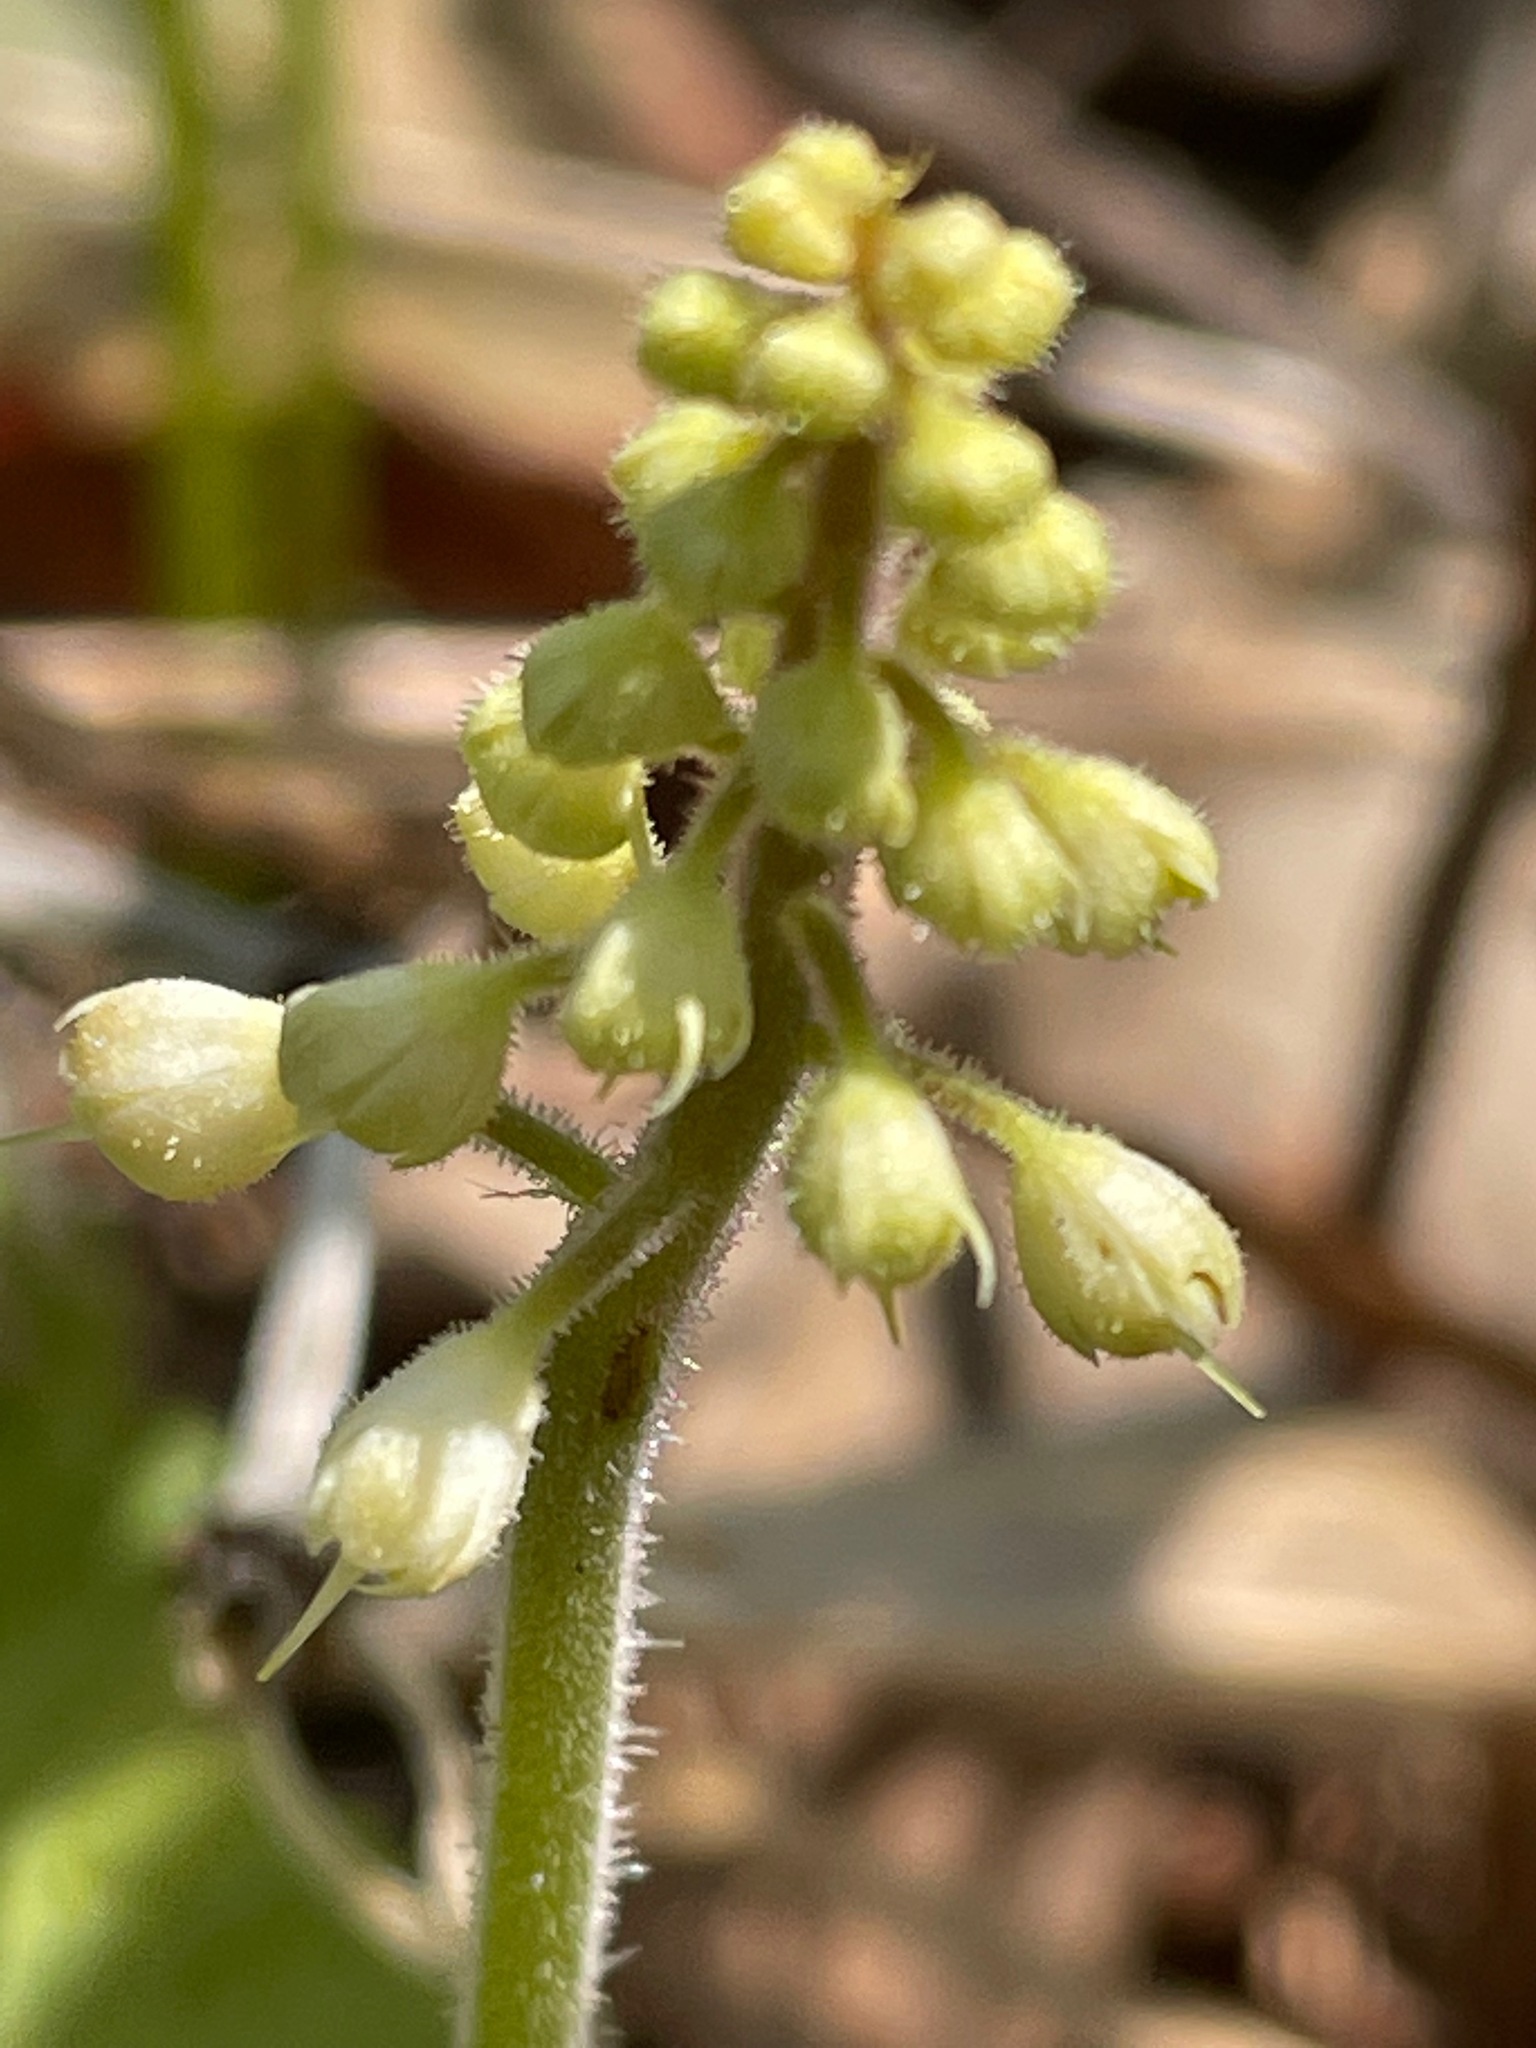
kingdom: Plantae
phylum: Tracheophyta
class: Magnoliopsida
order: Saxifragales
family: Saxifragaceae
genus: Tiarella
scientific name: Tiarella stolonifera
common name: Stoloniferous foamflower
